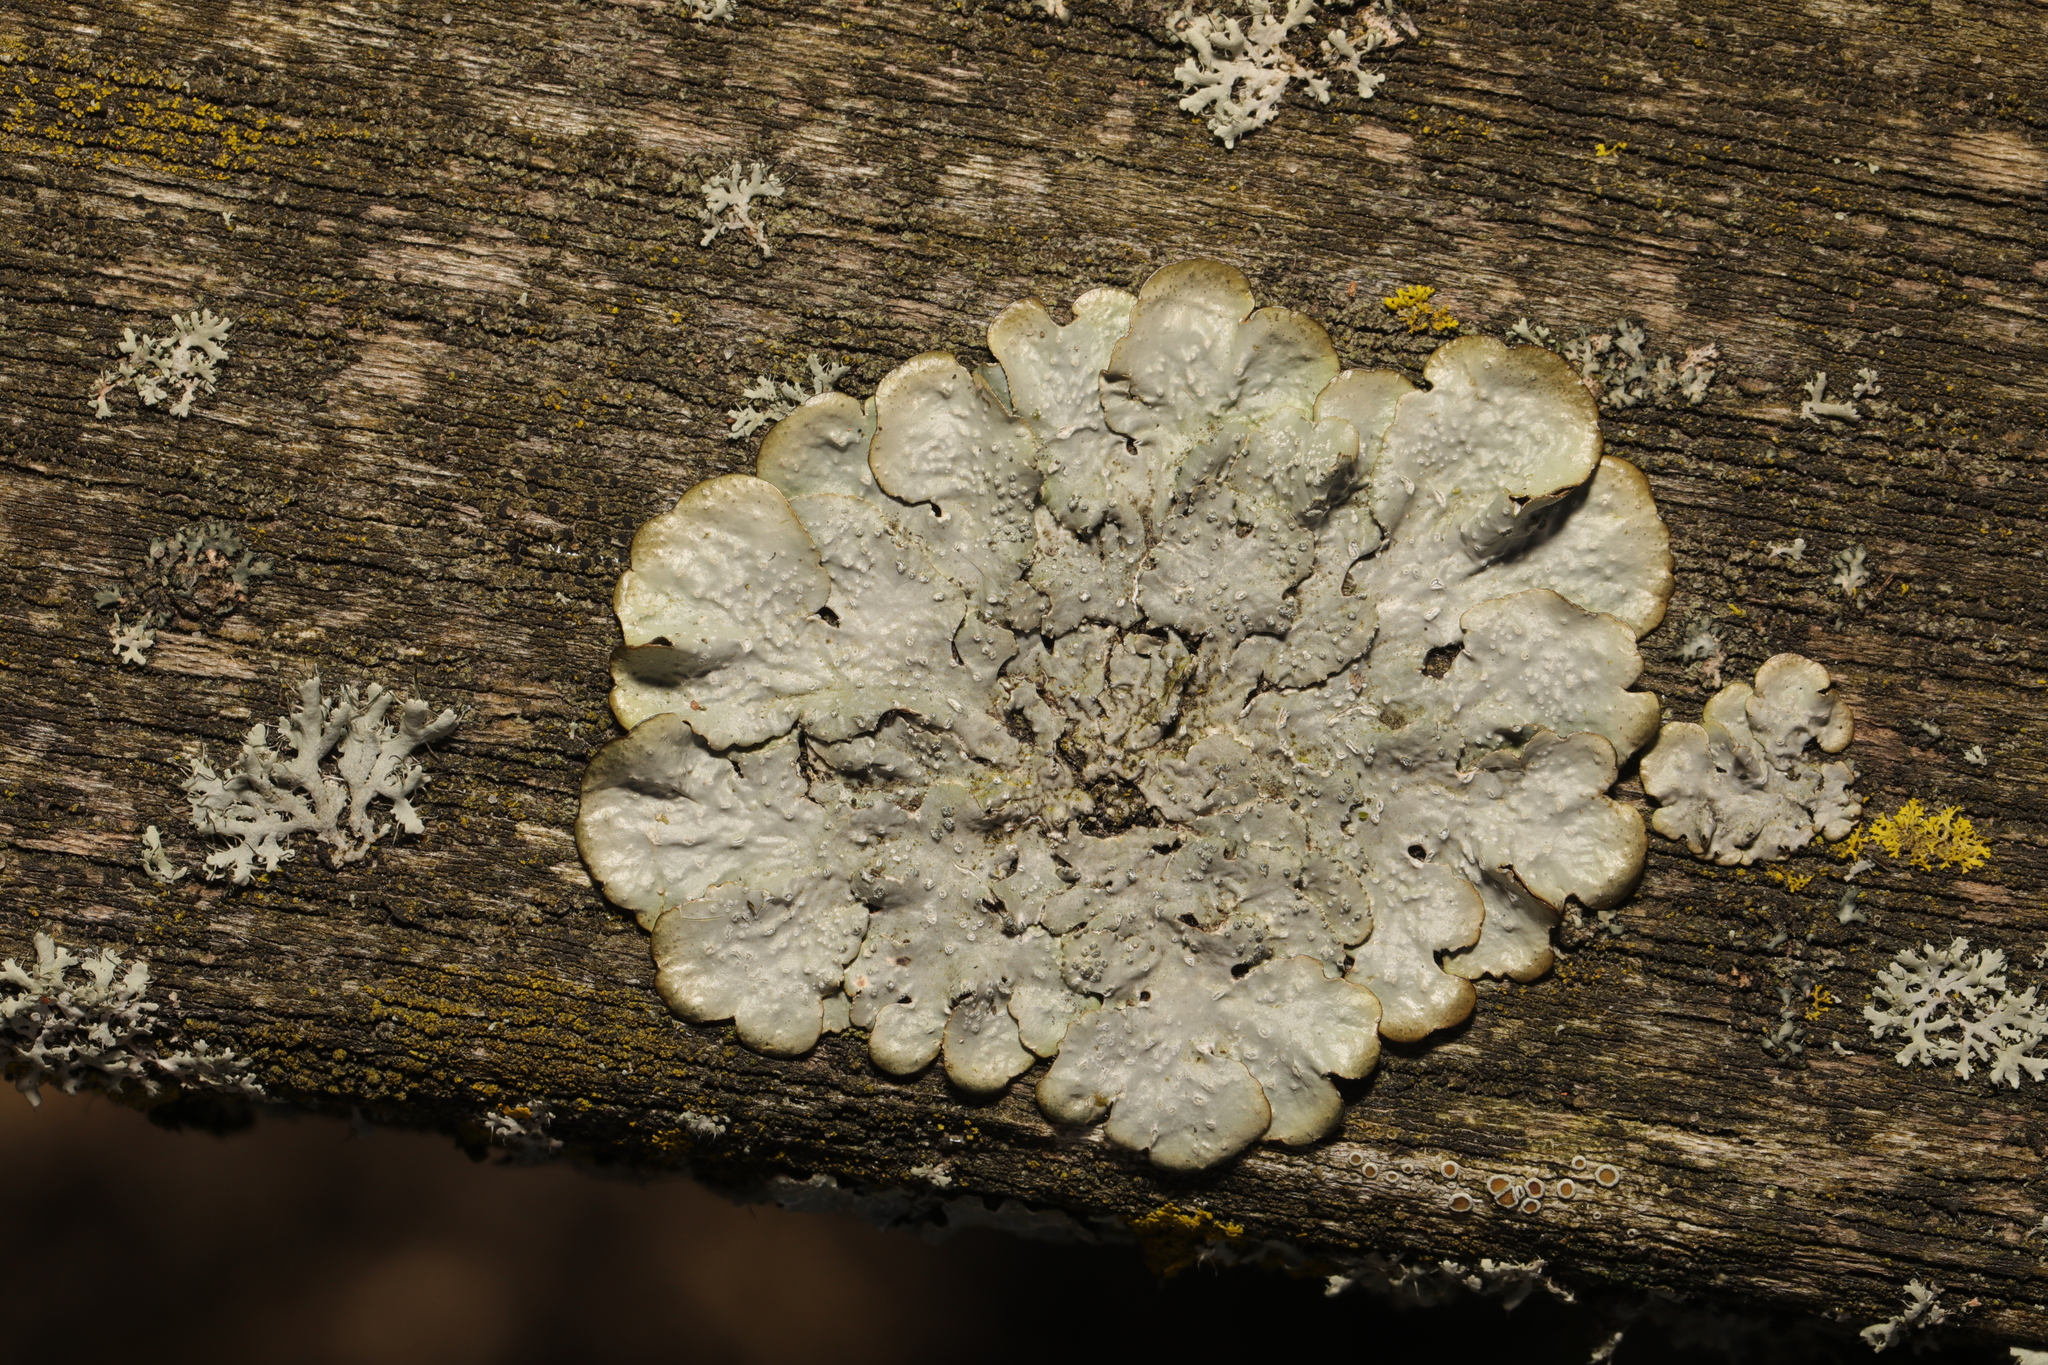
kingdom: Fungi
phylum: Ascomycota
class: Lecanoromycetes
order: Lecanorales
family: Parmeliaceae
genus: Punctelia
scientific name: Punctelia
